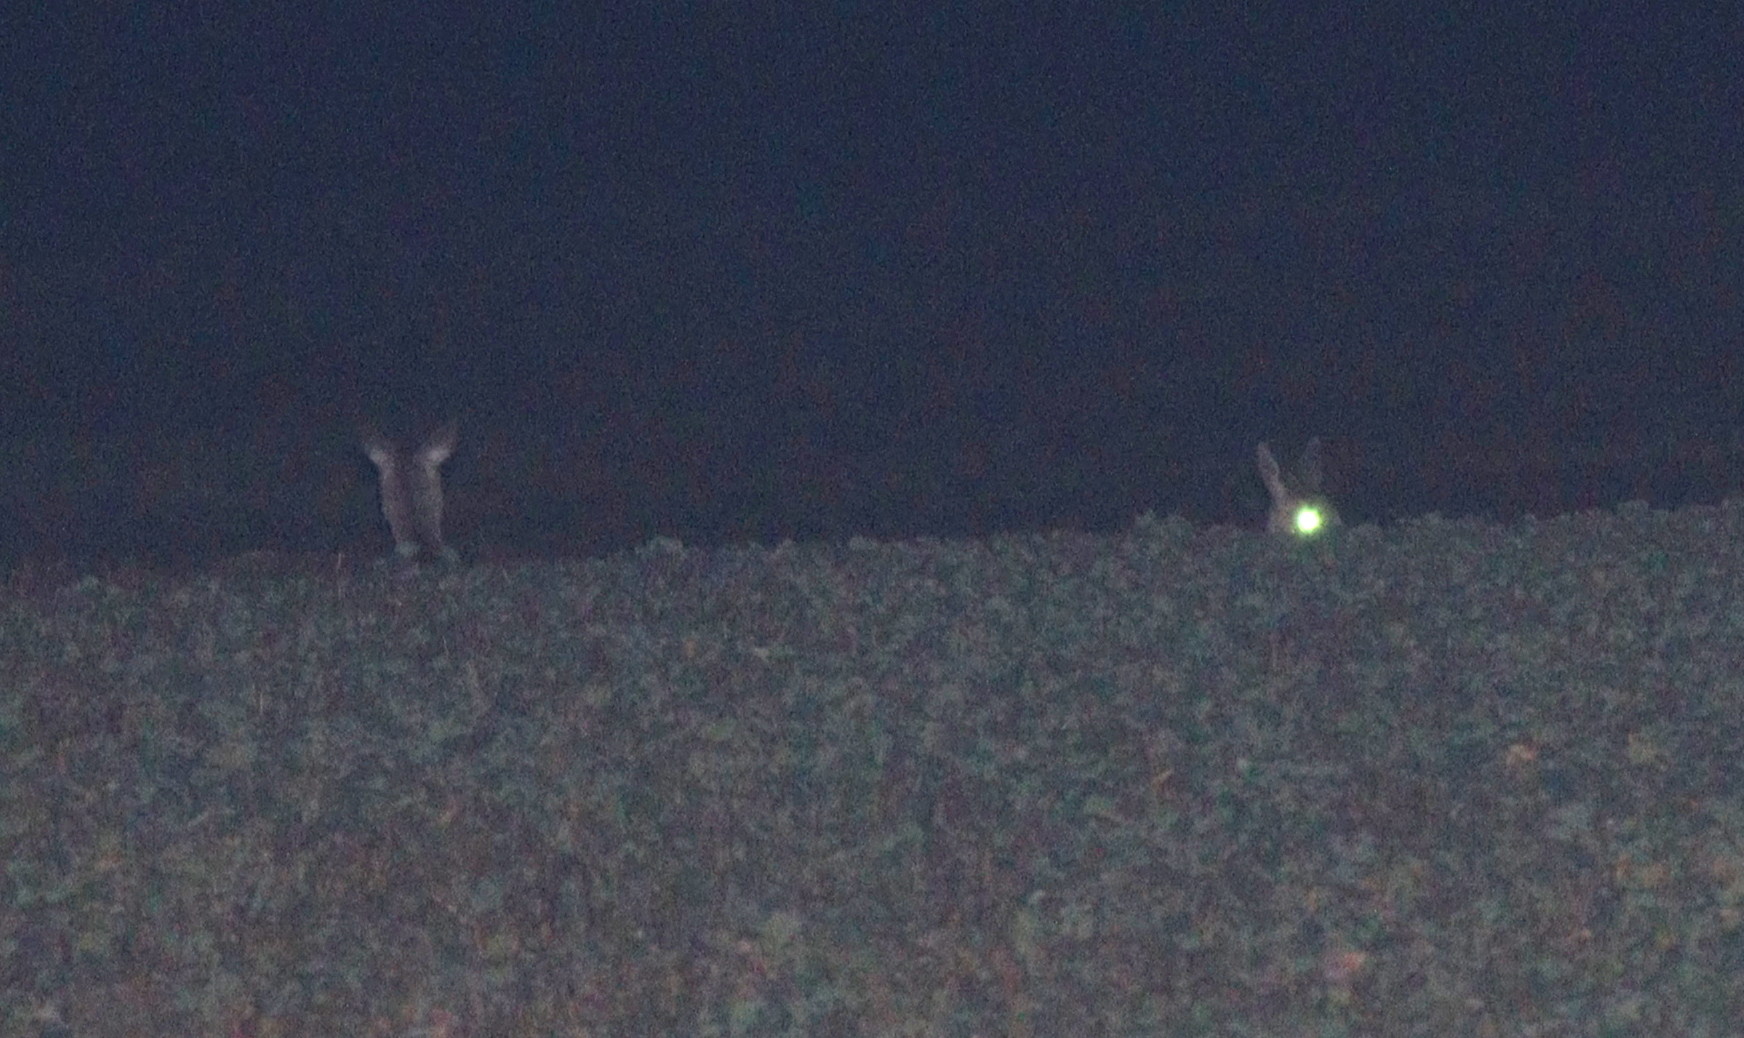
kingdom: Animalia
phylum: Chordata
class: Mammalia
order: Artiodactyla
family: Cervidae
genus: Capreolus
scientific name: Capreolus capreolus
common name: Western roe deer
